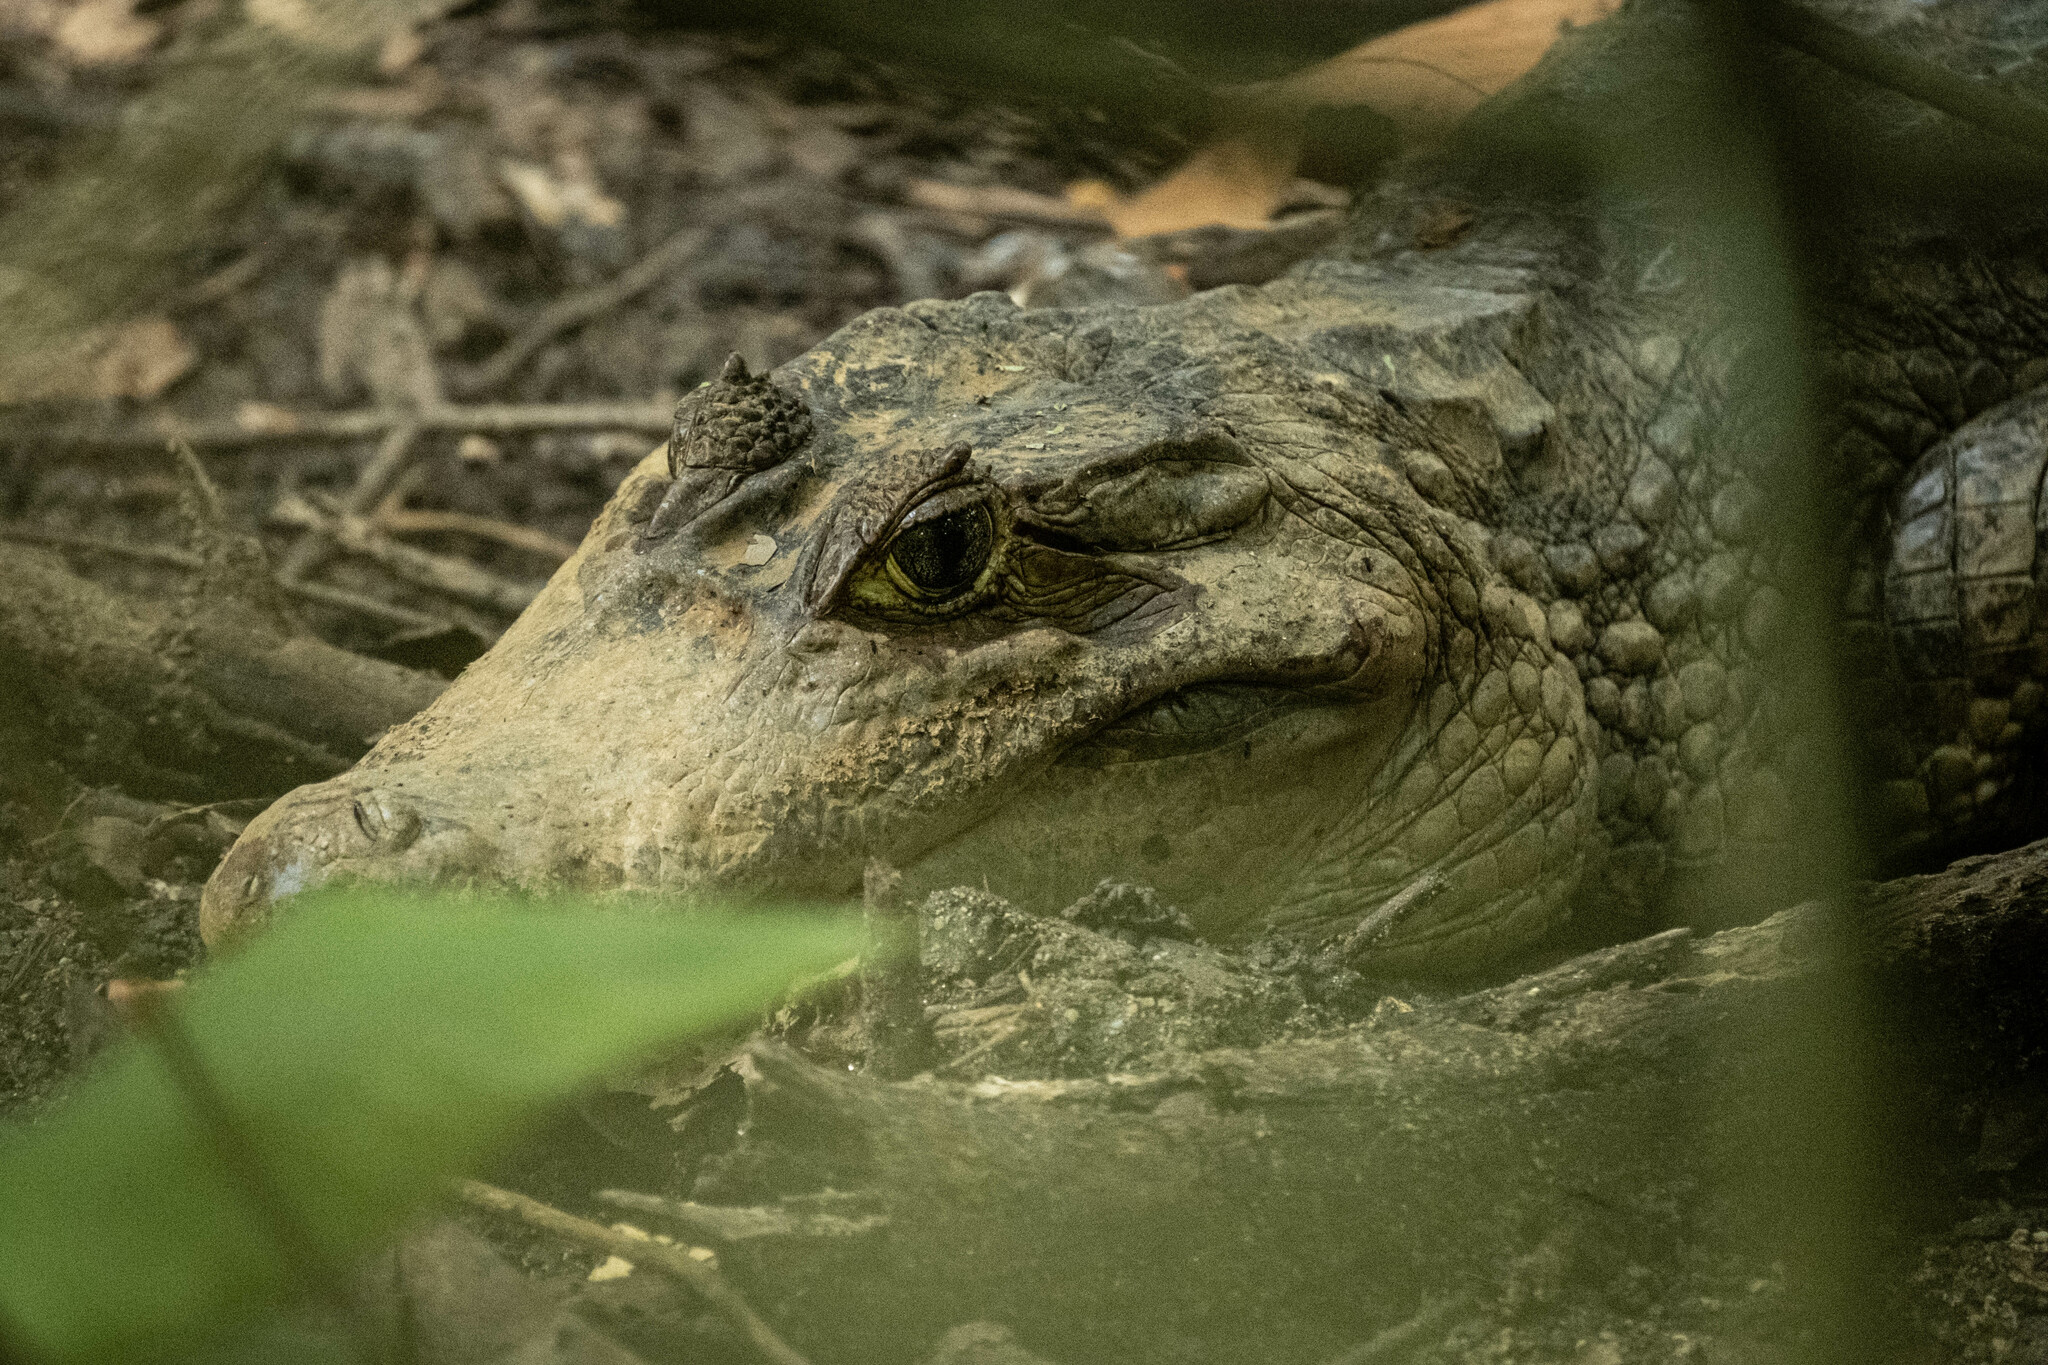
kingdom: Animalia
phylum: Chordata
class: Crocodylia
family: Alligatoridae
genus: Caiman
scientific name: Caiman crocodilus
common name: Common caiman
